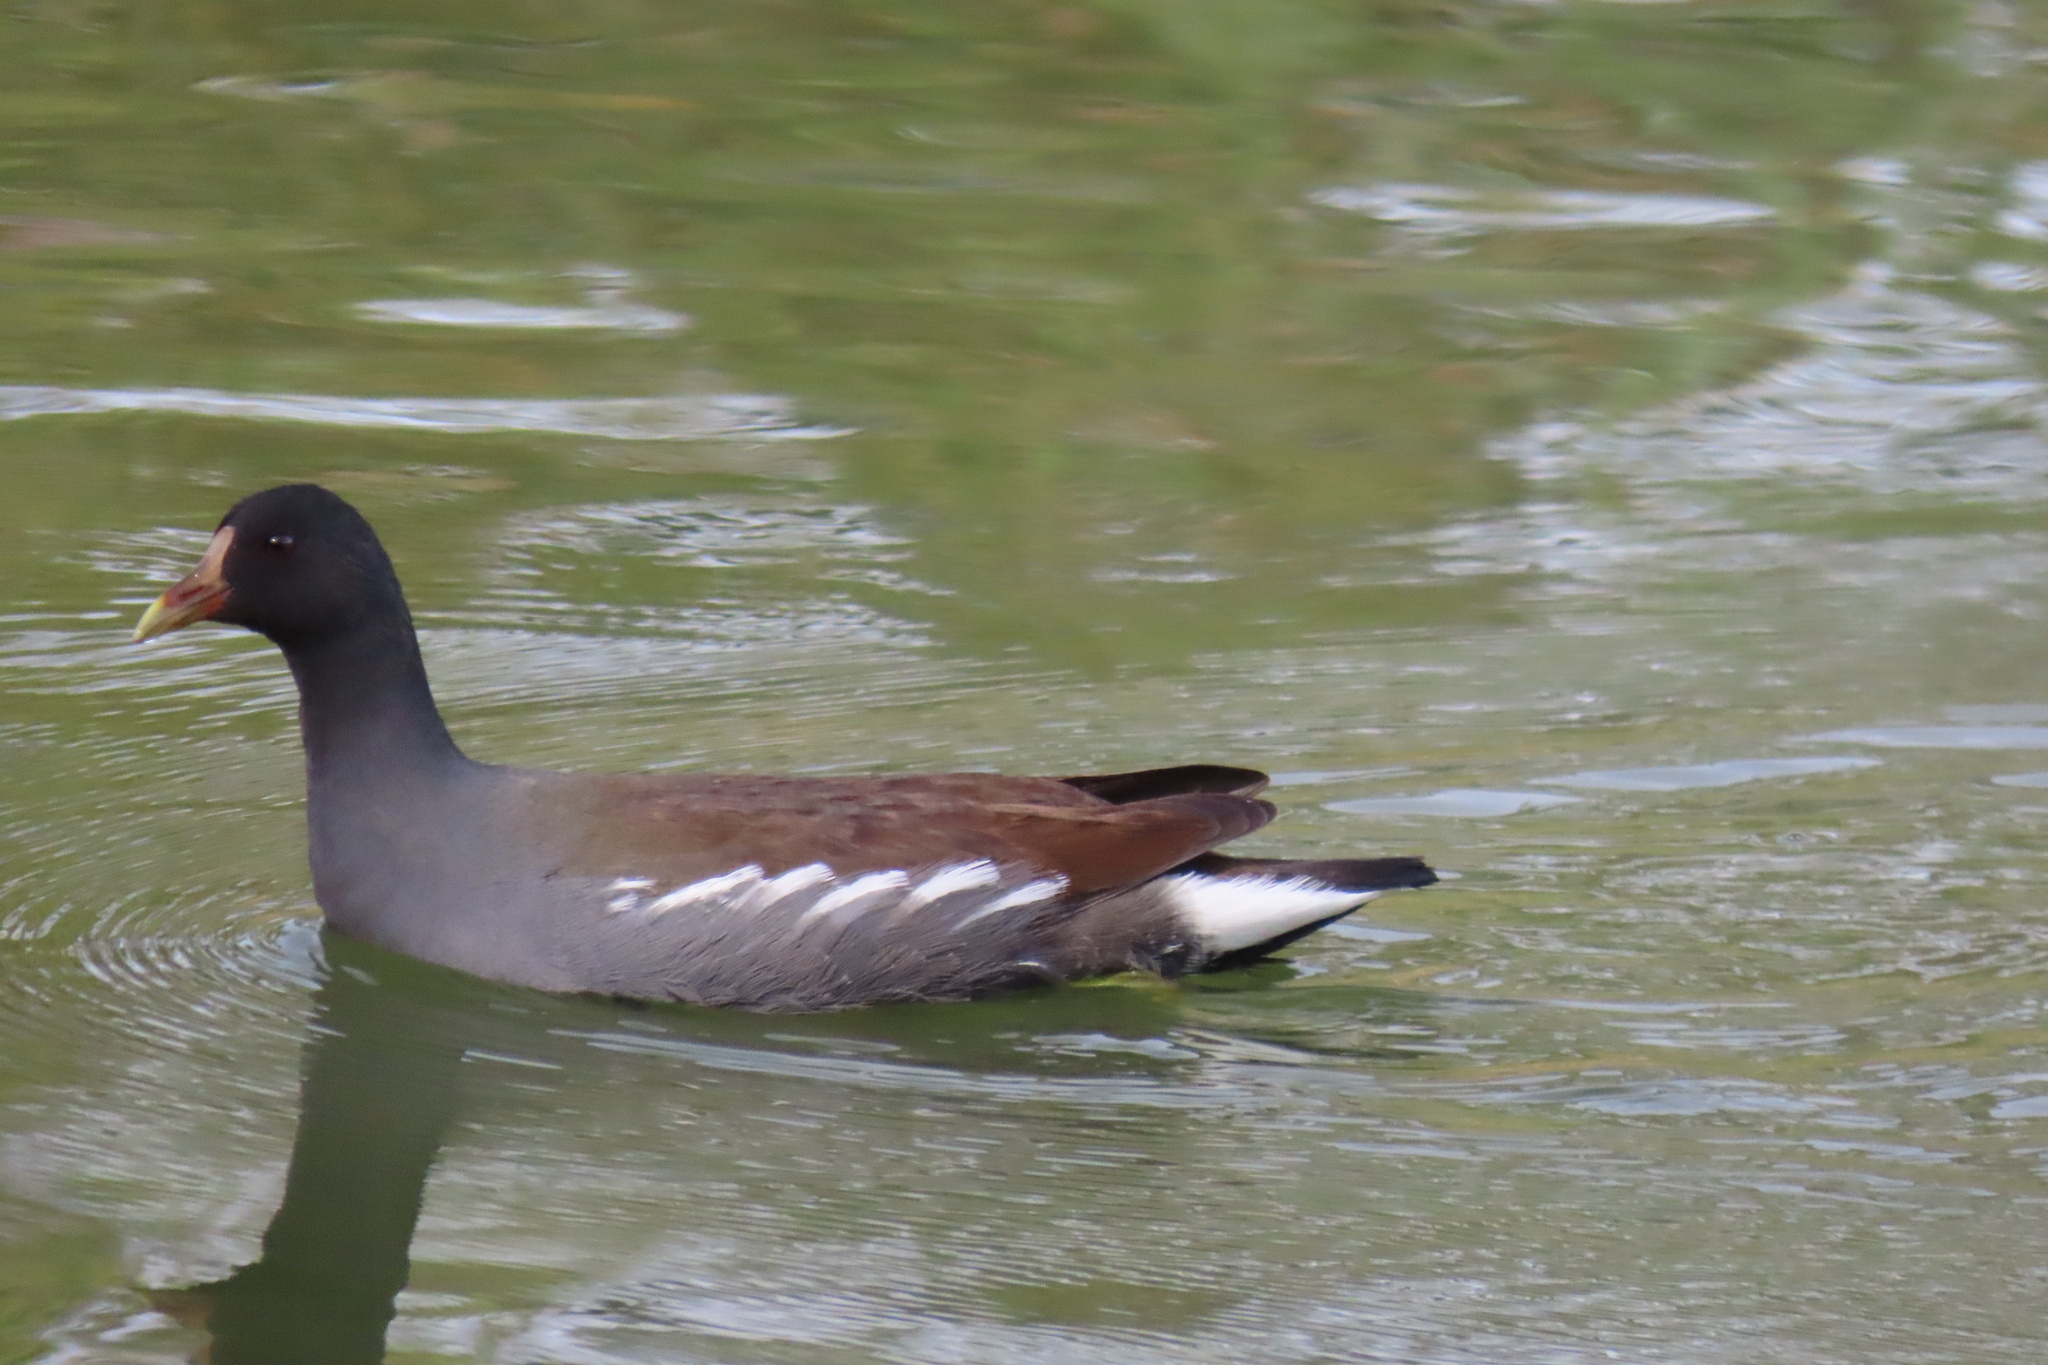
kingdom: Animalia
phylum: Chordata
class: Aves
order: Gruiformes
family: Rallidae
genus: Gallinula
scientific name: Gallinula chloropus
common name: Common moorhen
